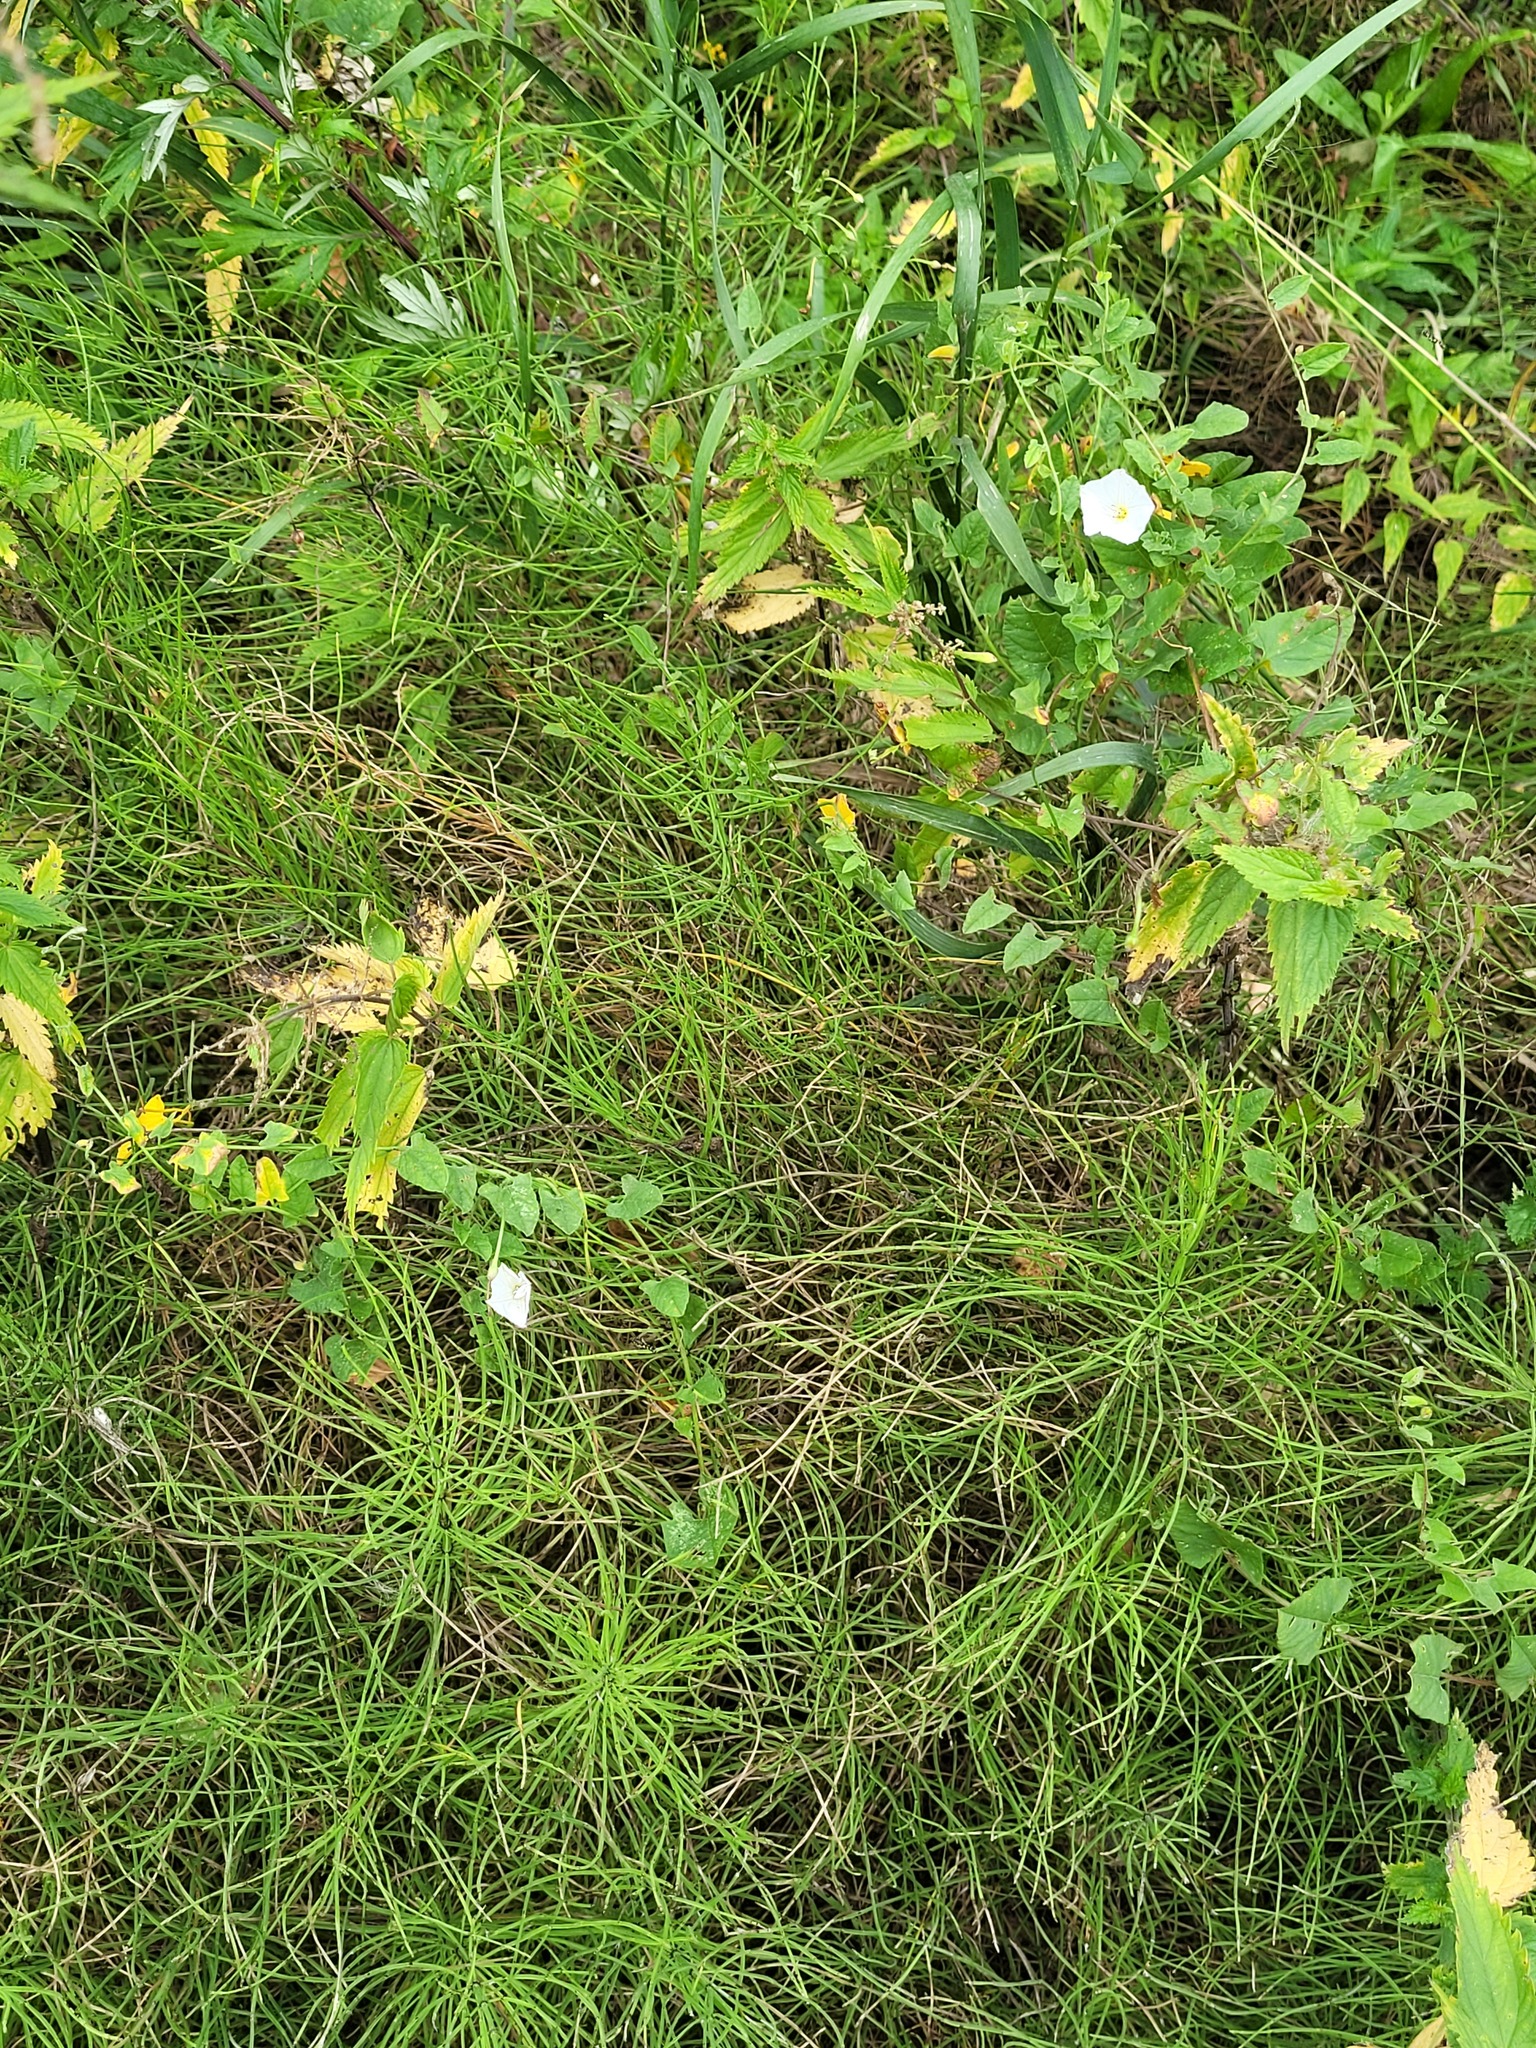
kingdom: Plantae
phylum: Tracheophyta
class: Polypodiopsida
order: Equisetales
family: Equisetaceae
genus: Equisetum
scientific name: Equisetum arvense
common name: Field horsetail
